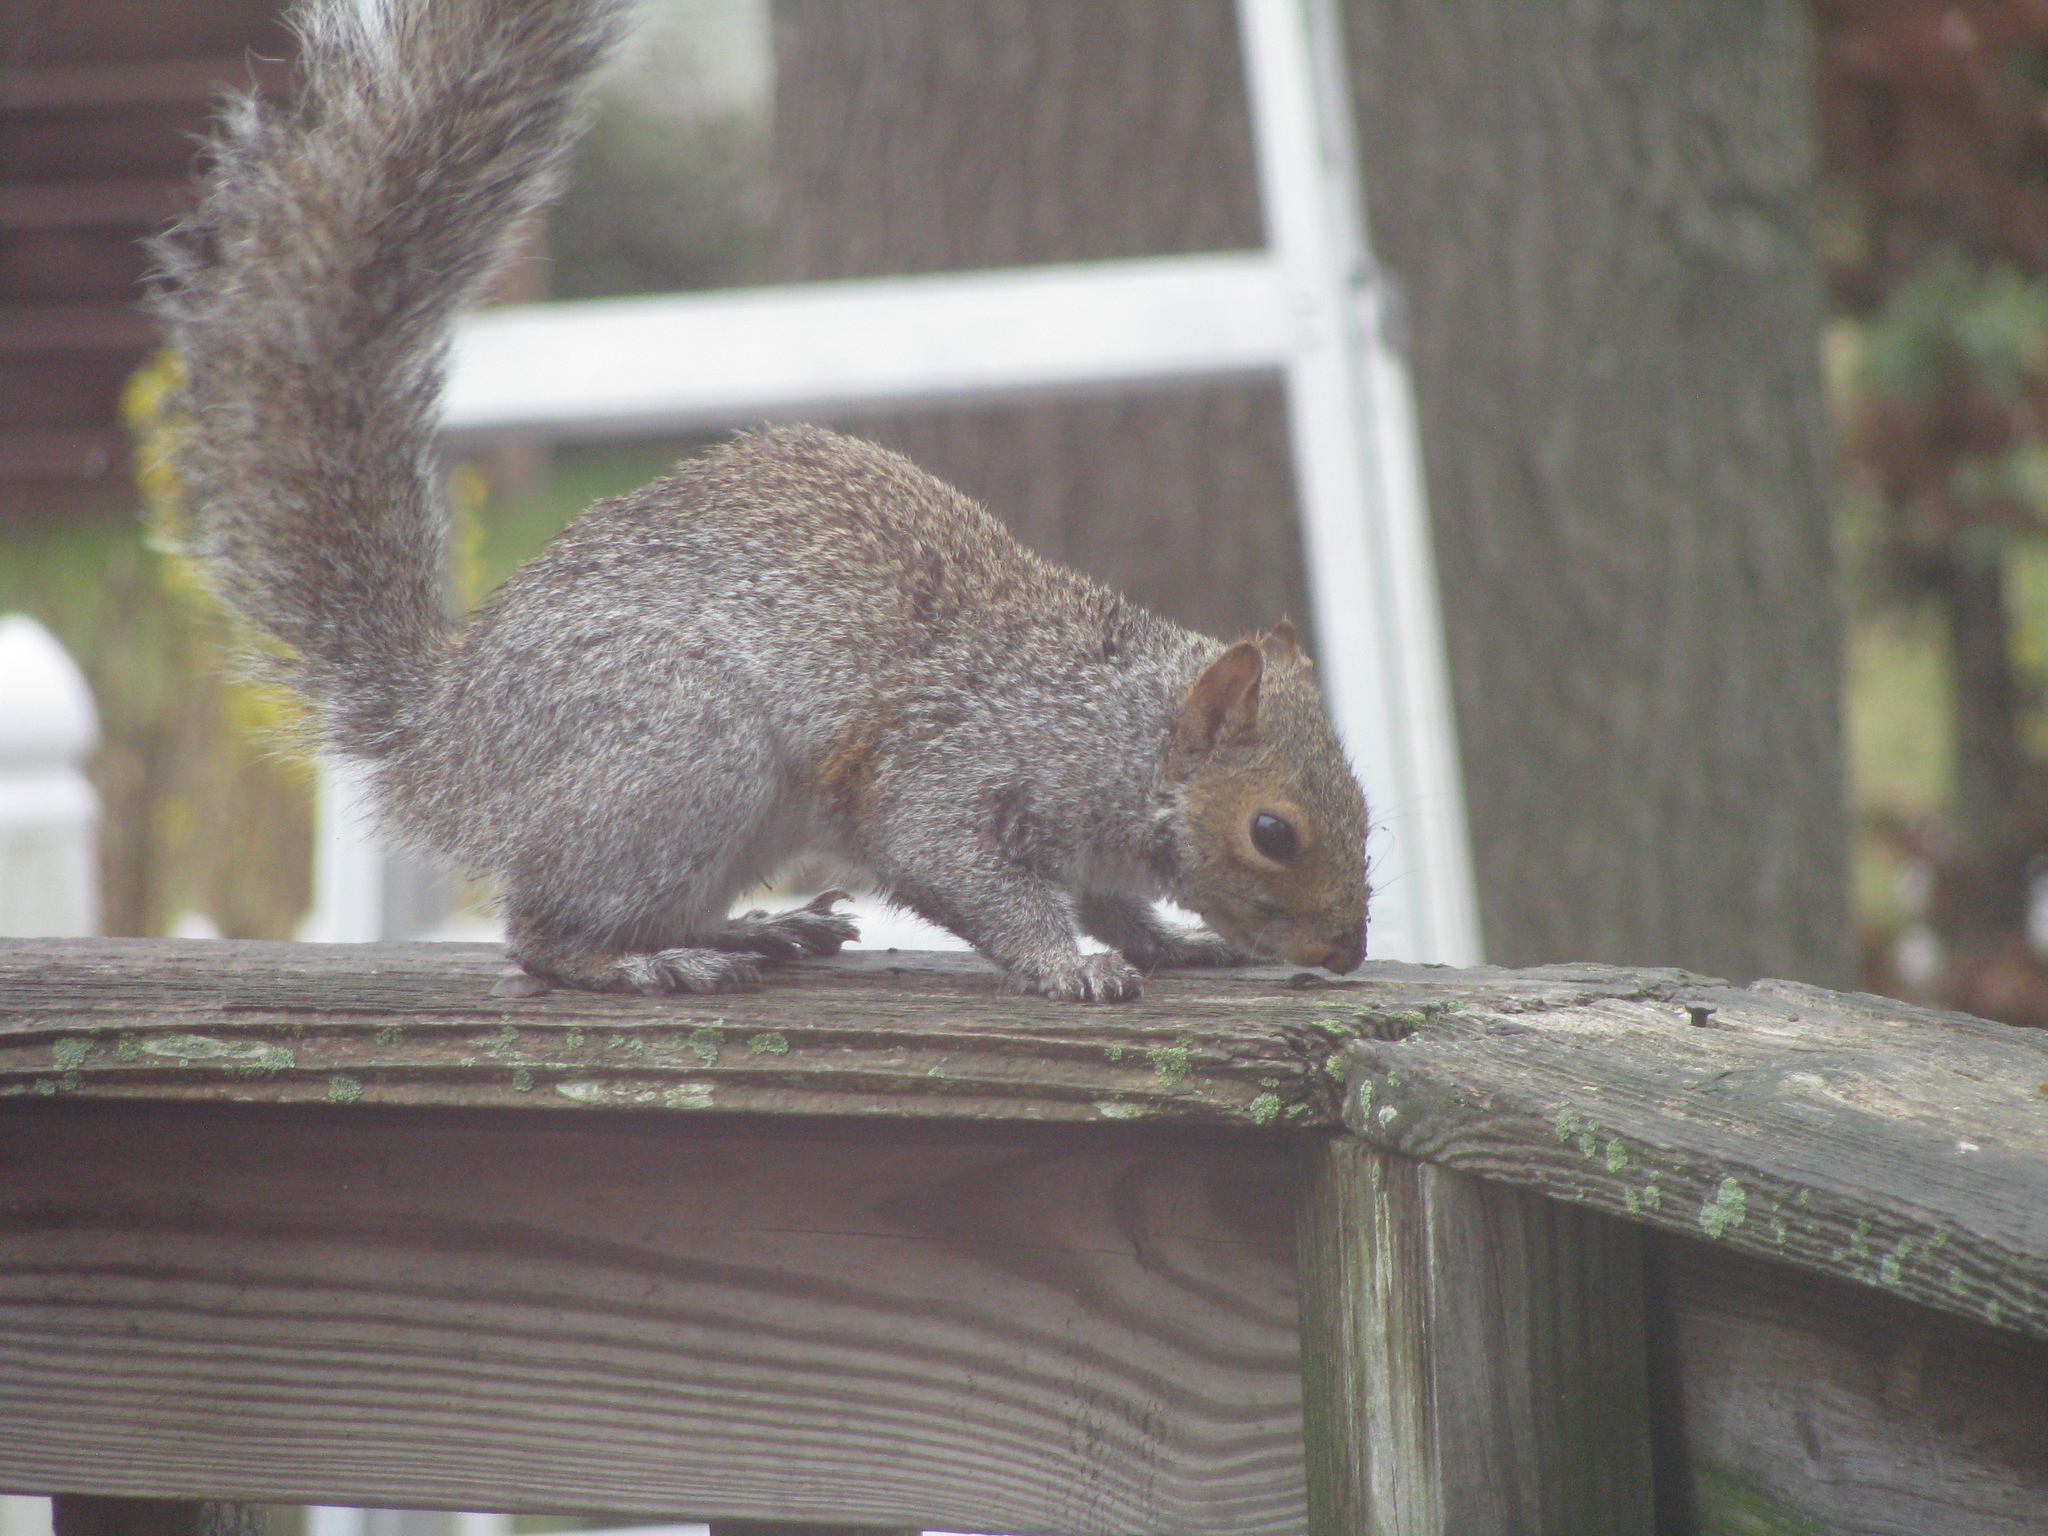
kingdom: Animalia
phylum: Chordata
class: Mammalia
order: Rodentia
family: Sciuridae
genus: Sciurus
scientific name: Sciurus carolinensis
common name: Eastern gray squirrel
